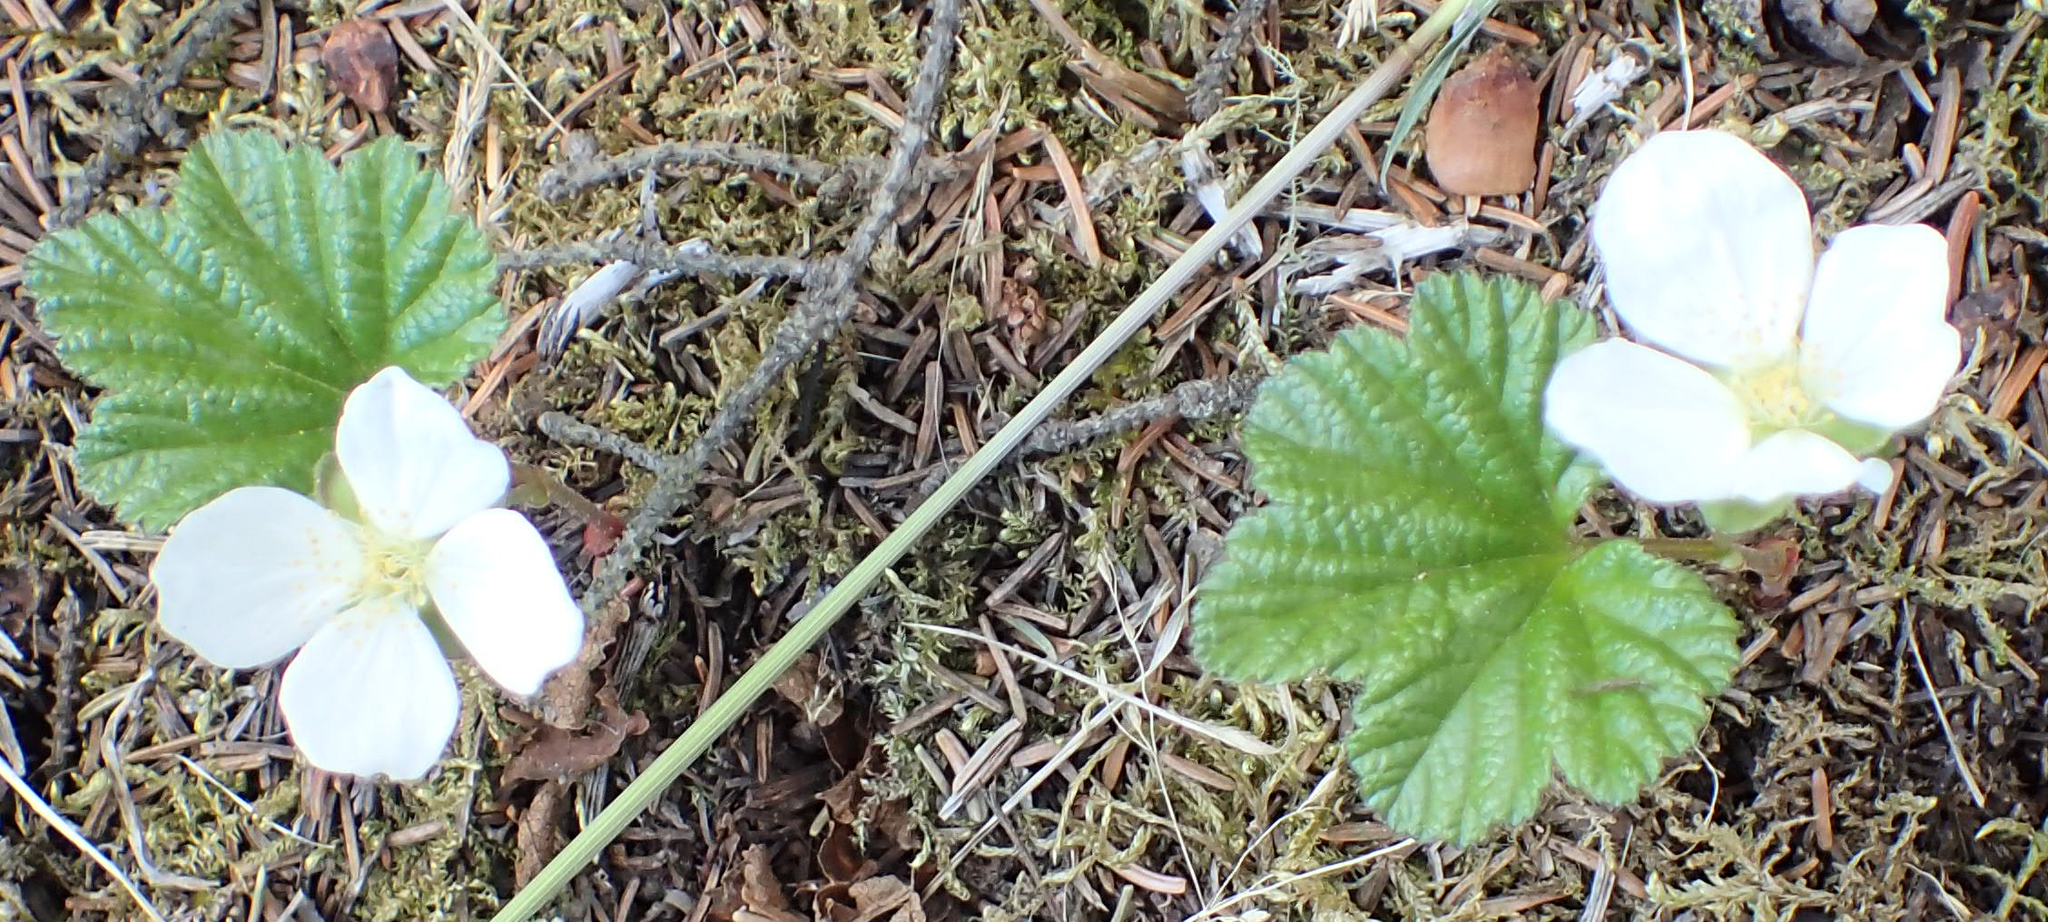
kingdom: Plantae
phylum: Tracheophyta
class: Magnoliopsida
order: Rosales
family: Rosaceae
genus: Rubus
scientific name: Rubus chamaemorus
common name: Cloudberry
